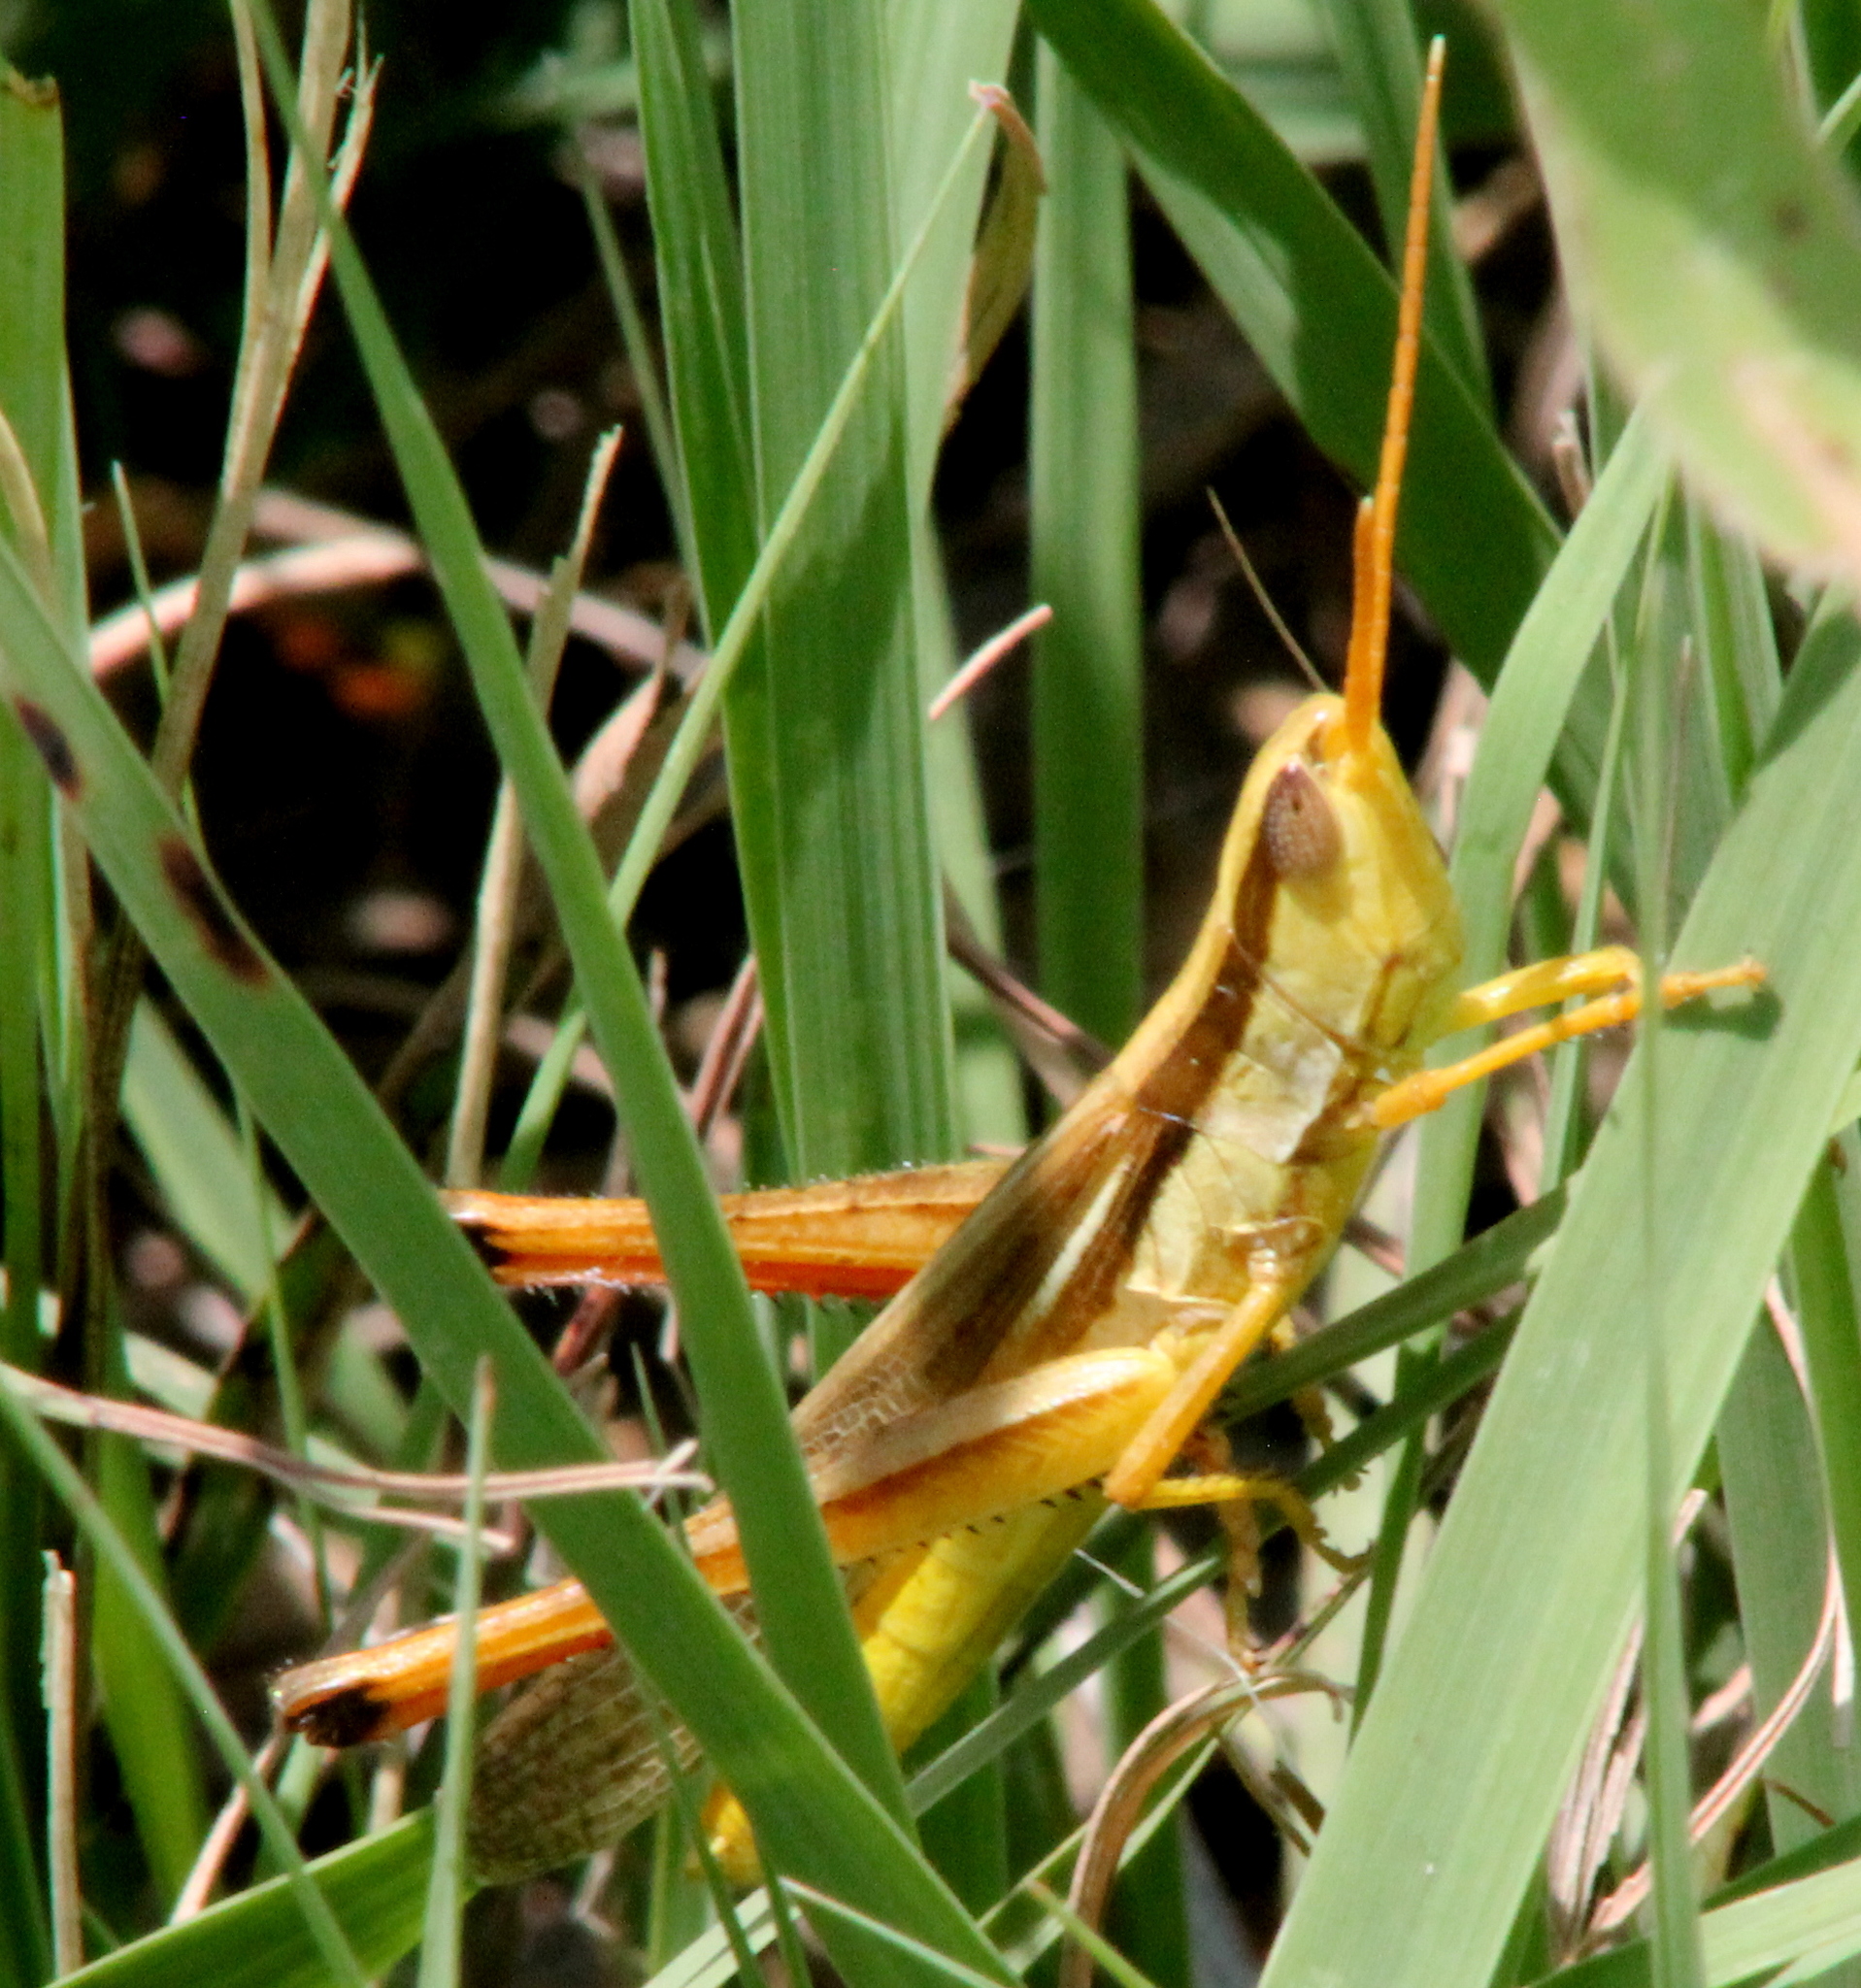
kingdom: Animalia
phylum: Arthropoda
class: Insecta
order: Orthoptera
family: Acrididae
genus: Mermiria
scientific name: Mermiria bivittata
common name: Two-striped mermiria grasshopper
